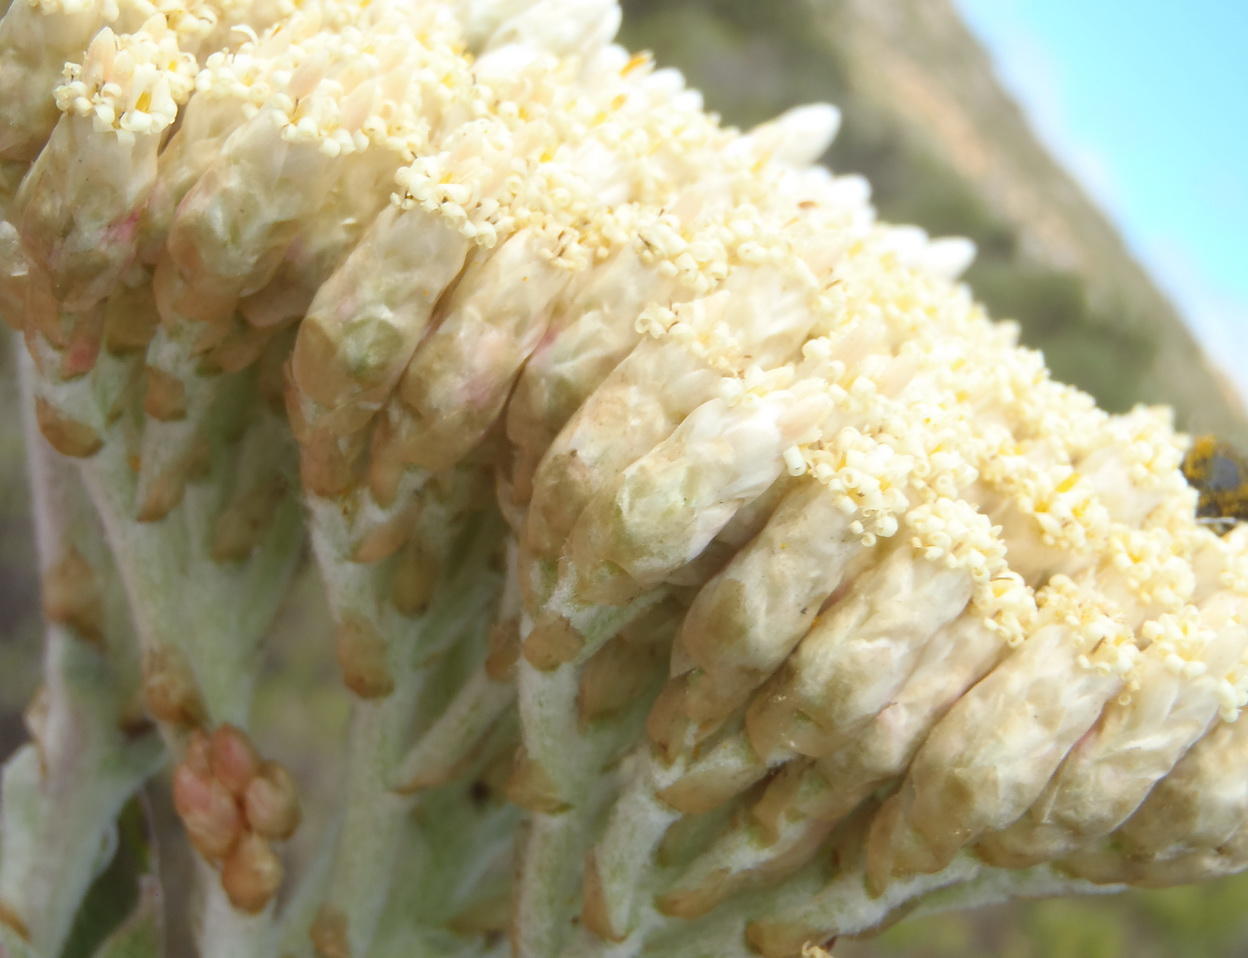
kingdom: Plantae
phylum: Tracheophyta
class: Magnoliopsida
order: Asterales
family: Asteraceae
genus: Syncarpha
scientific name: Syncarpha milleflora
